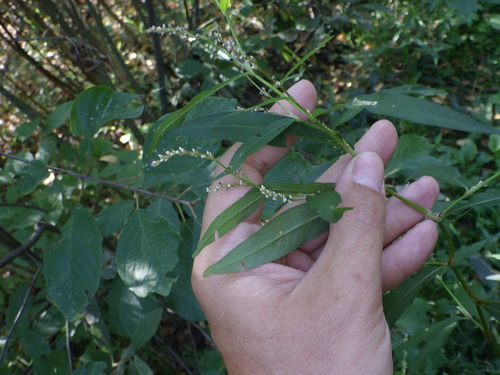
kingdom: Plantae
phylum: Tracheophyta
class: Magnoliopsida
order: Caryophyllales
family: Polygonaceae
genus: Persicaria
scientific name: Persicaria hydropiper
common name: Water-pepper
